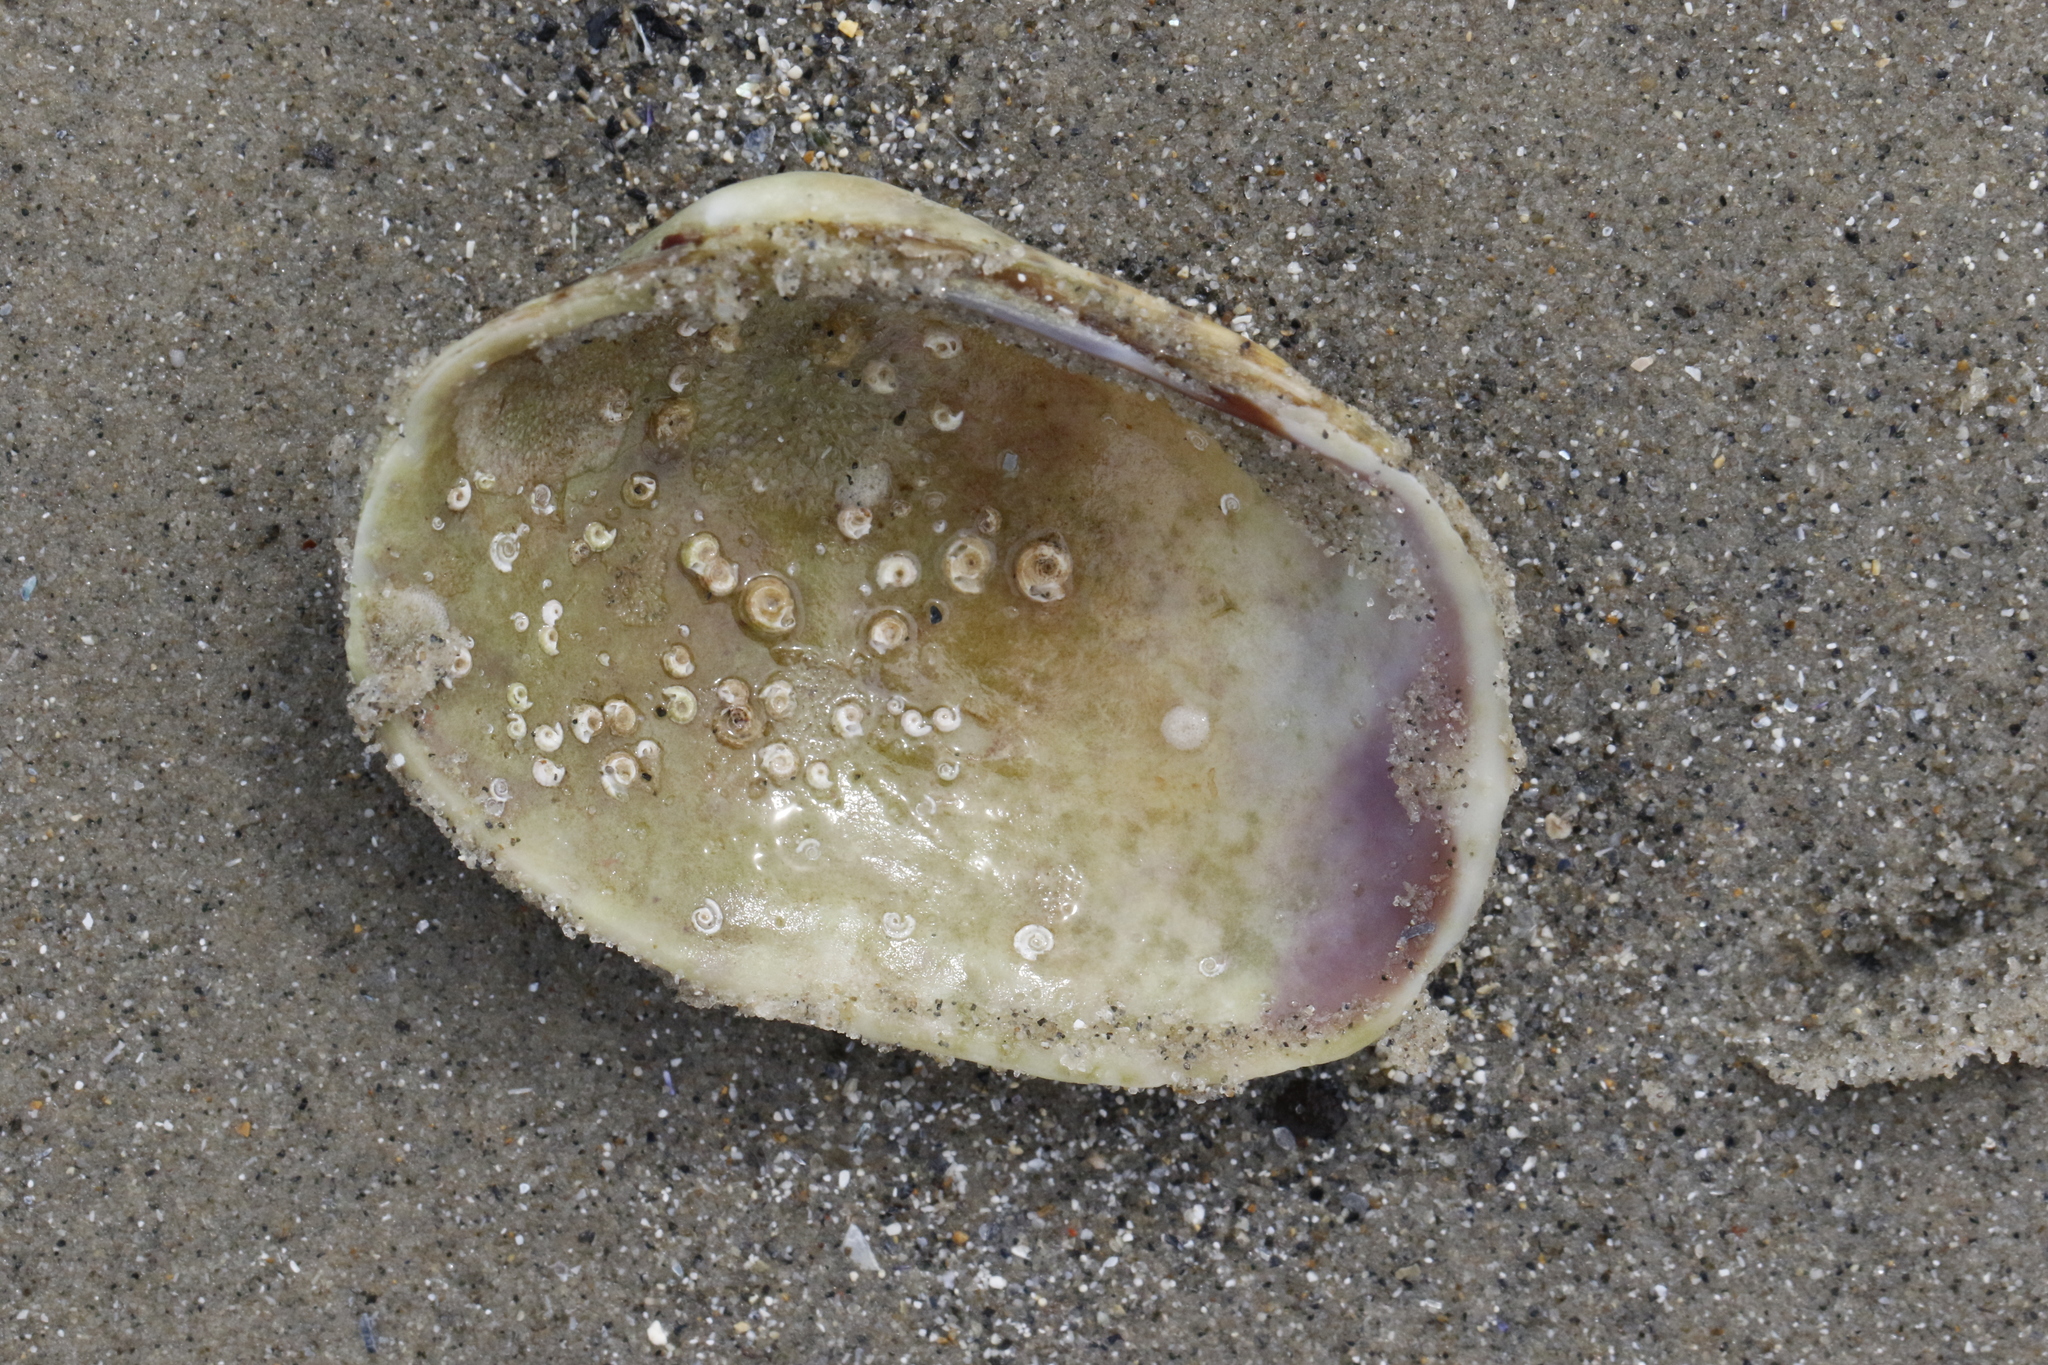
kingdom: Animalia
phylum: Mollusca
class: Bivalvia
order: Venerida
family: Veneridae
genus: Ruditapes
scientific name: Ruditapes decussatus
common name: Chequered carpet shell
